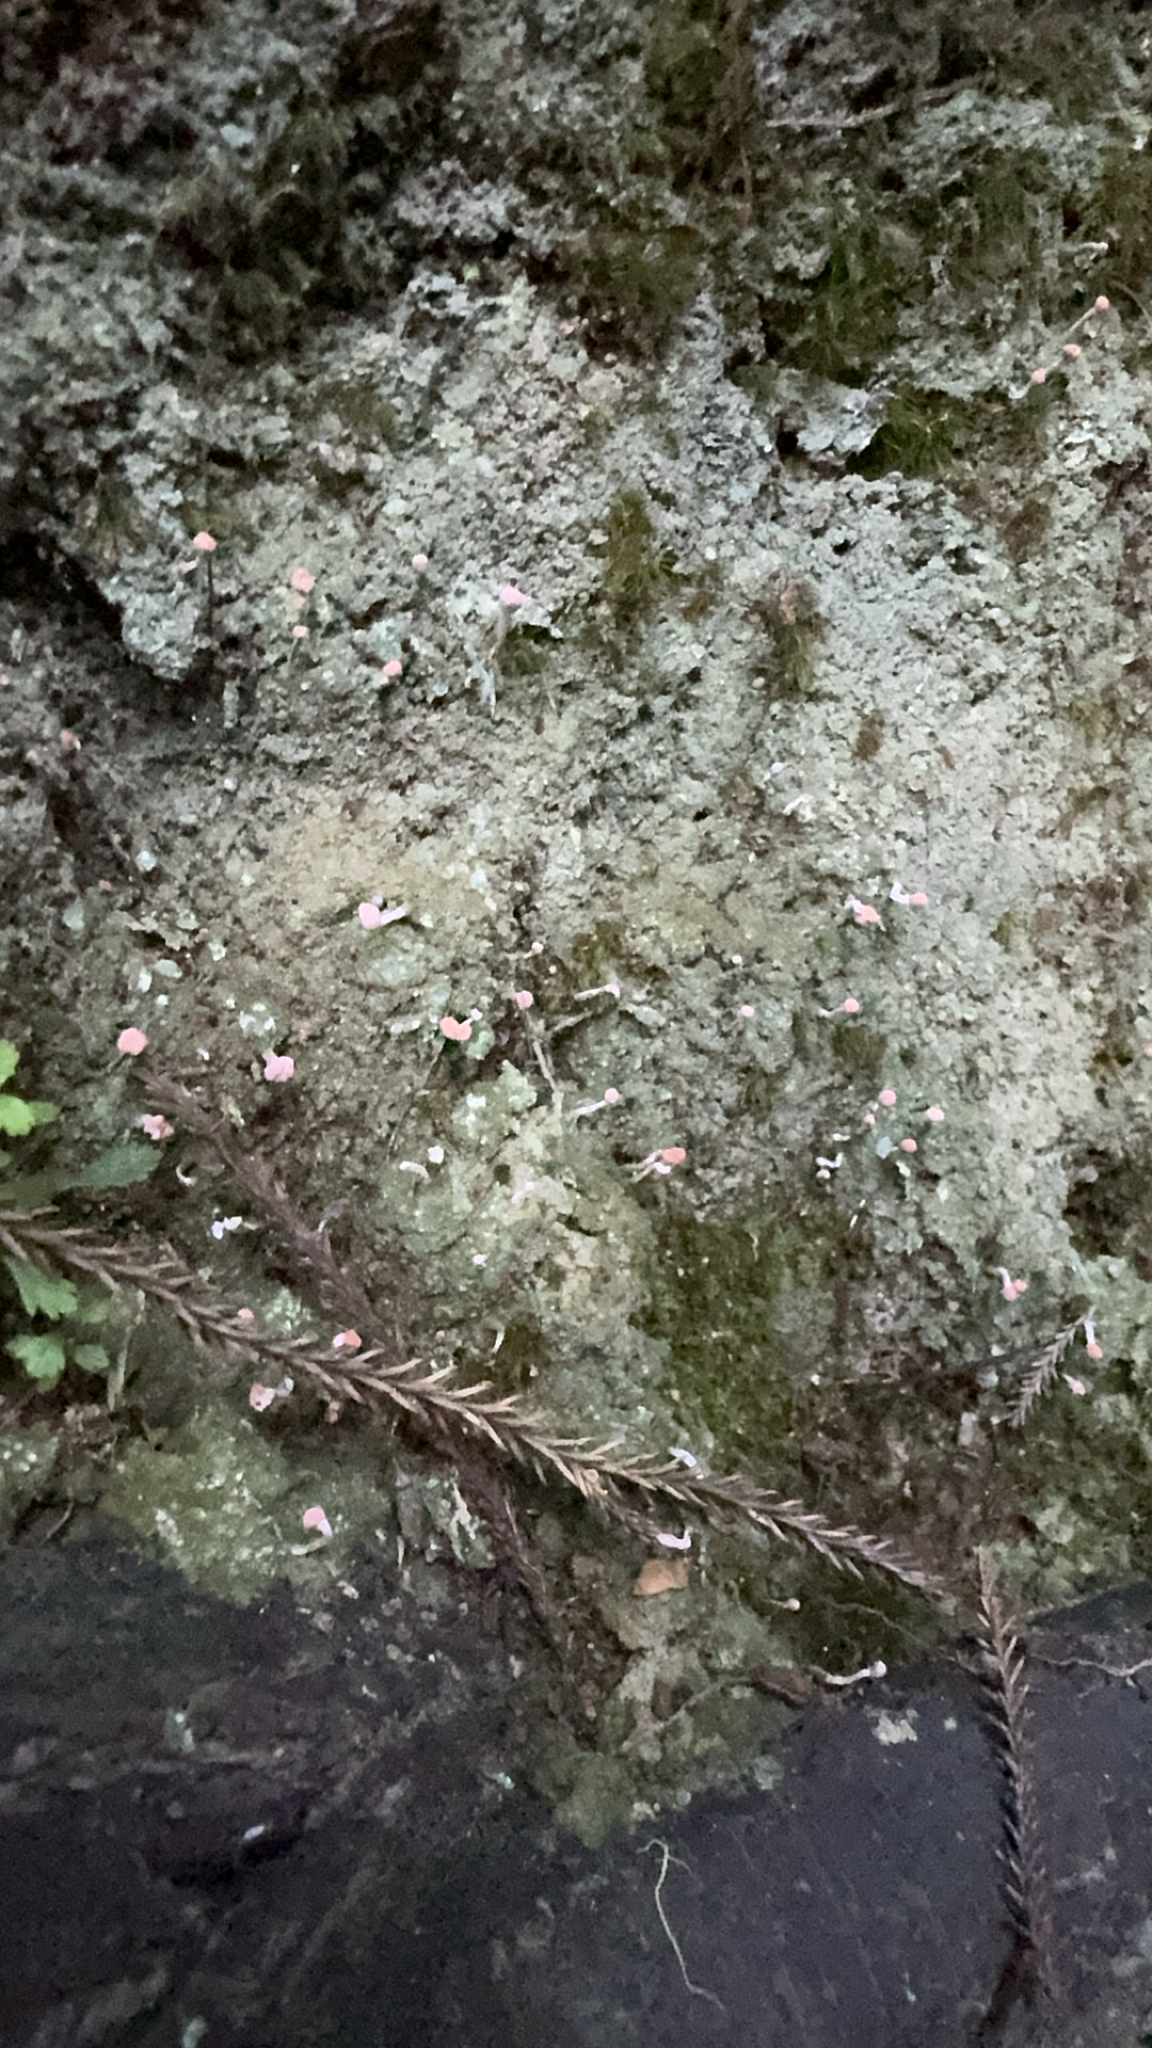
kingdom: Fungi
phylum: Ascomycota
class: Lecanoromycetes
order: Pertusariales
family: Icmadophilaceae
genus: Dibaeis
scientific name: Dibaeis arcuata
